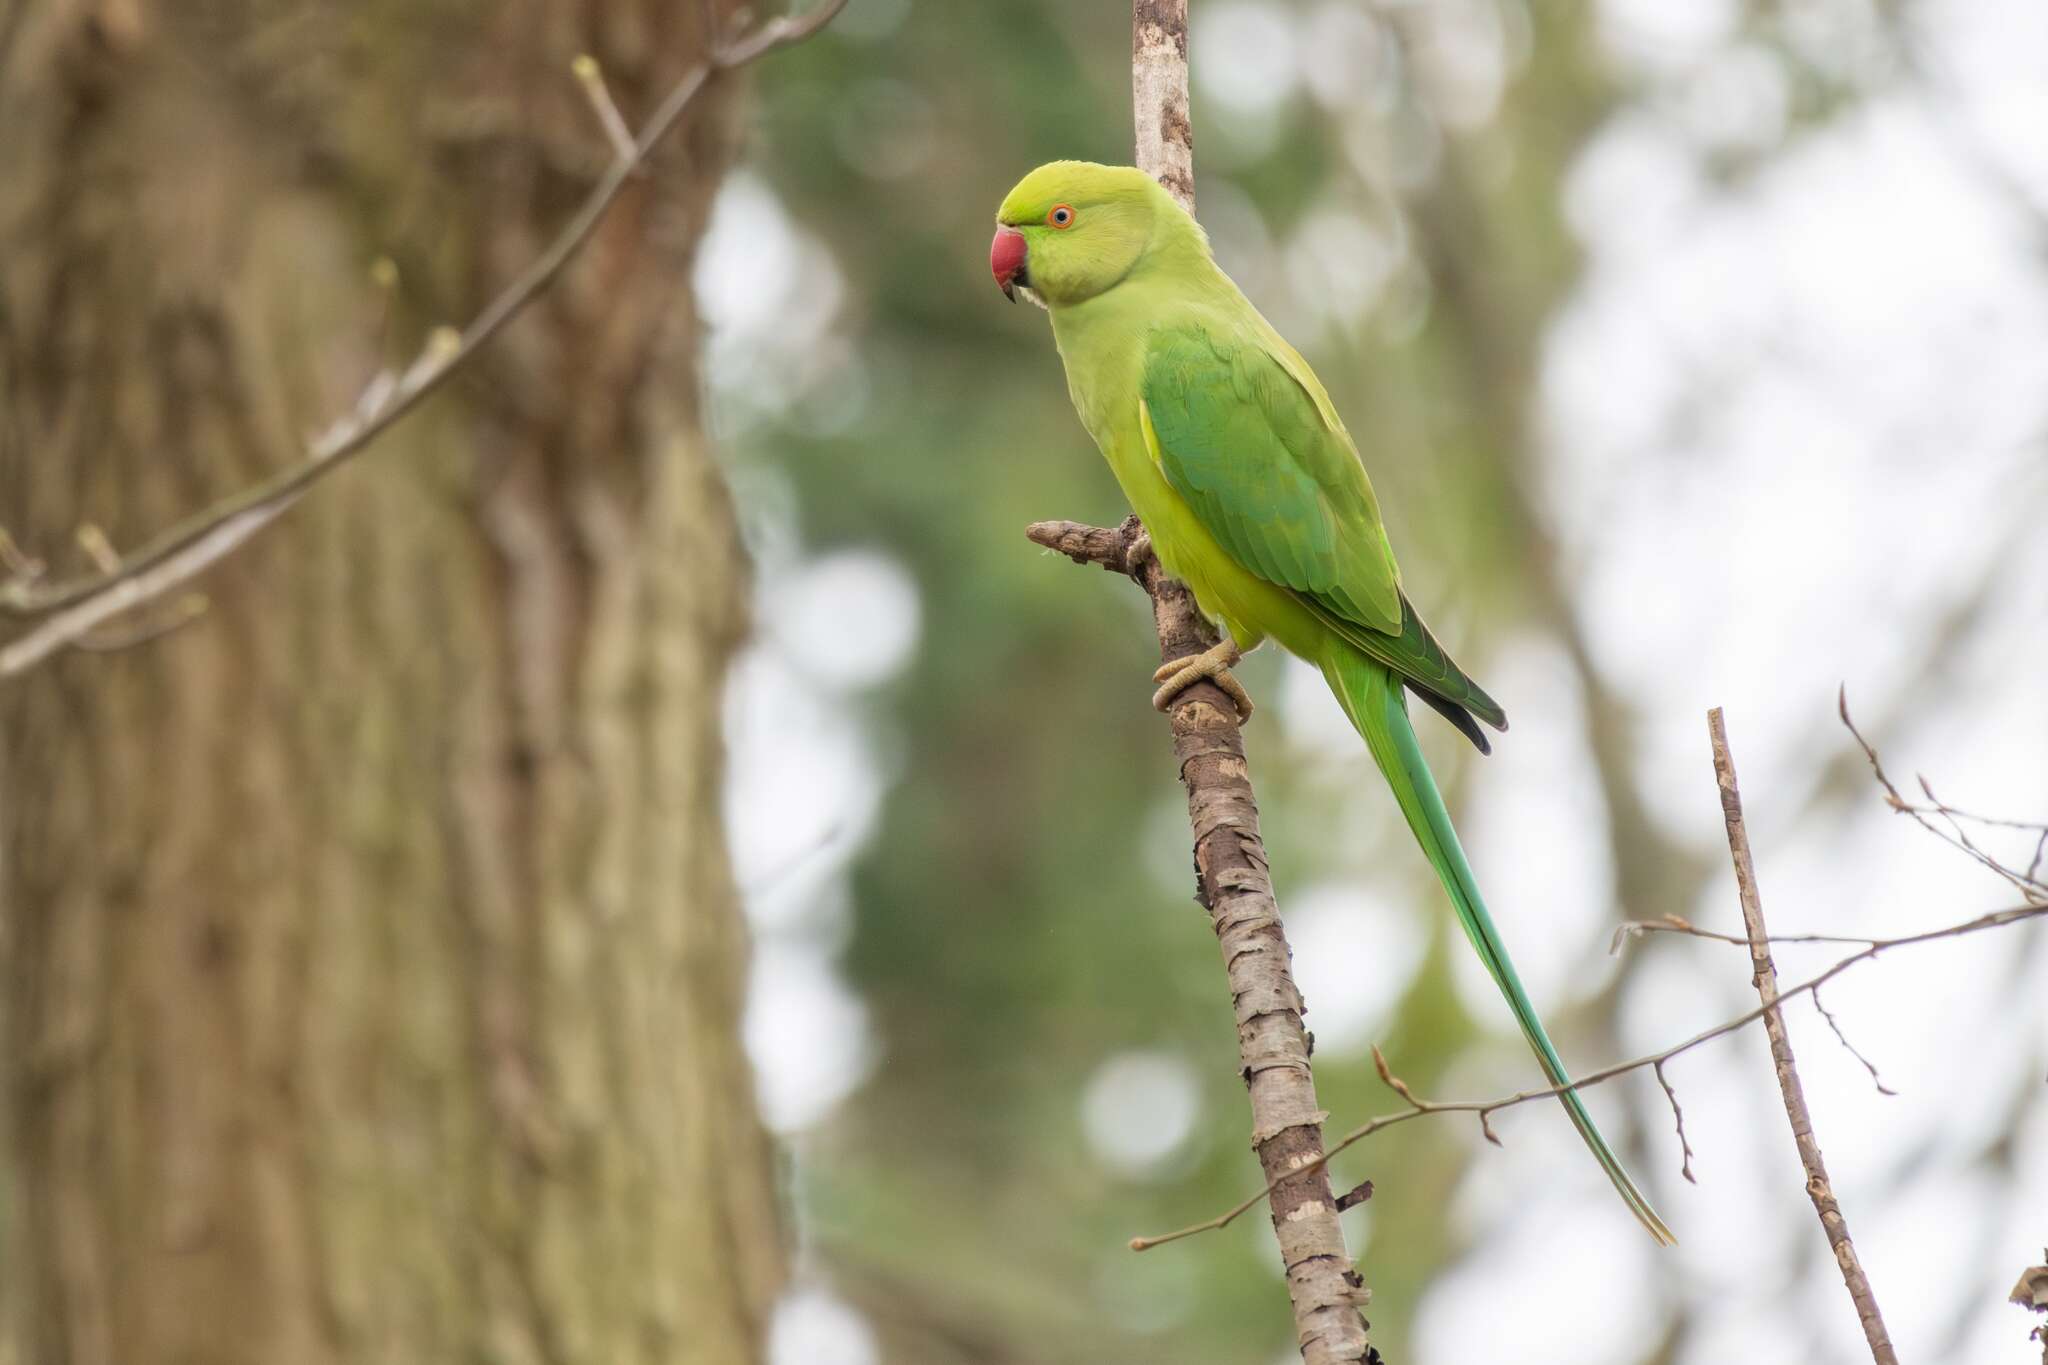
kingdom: Animalia
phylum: Chordata
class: Aves
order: Psittaciformes
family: Psittacidae
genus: Psittacula
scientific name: Psittacula krameri
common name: Rose-ringed parakeet
